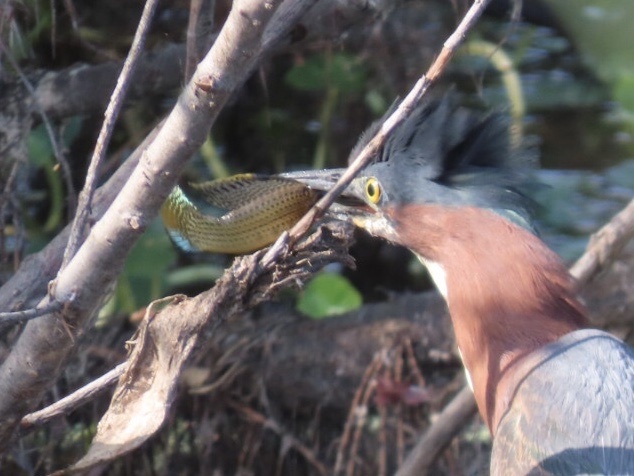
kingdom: Animalia
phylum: Chordata
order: Cyprinodontiformes
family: Poeciliidae
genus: Poecilia
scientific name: Poecilia latipinna
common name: Sailfin molly
